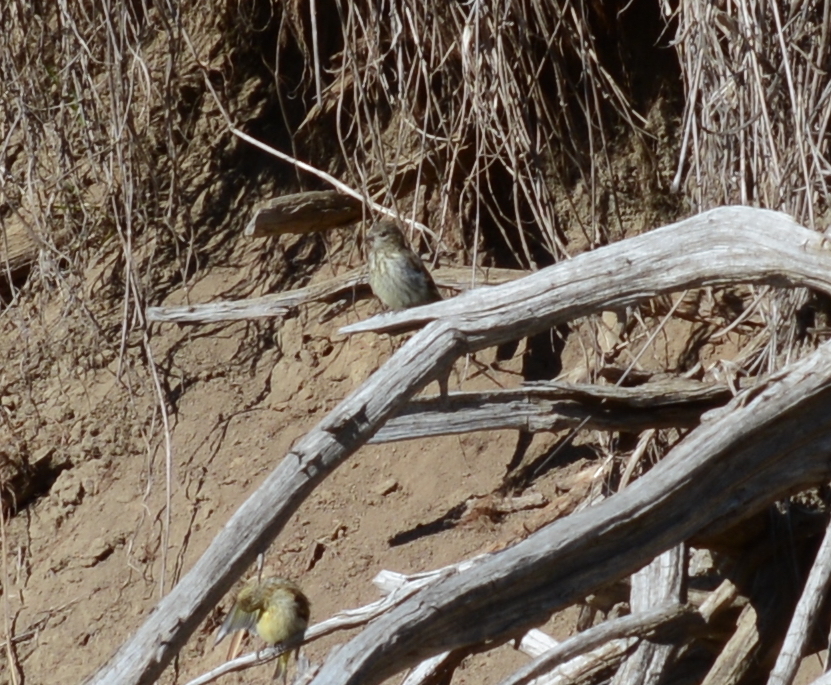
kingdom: Animalia
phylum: Chordata
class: Aves
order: Passeriformes
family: Fringillidae
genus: Spinus
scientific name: Spinus pinus
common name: Pine siskin
